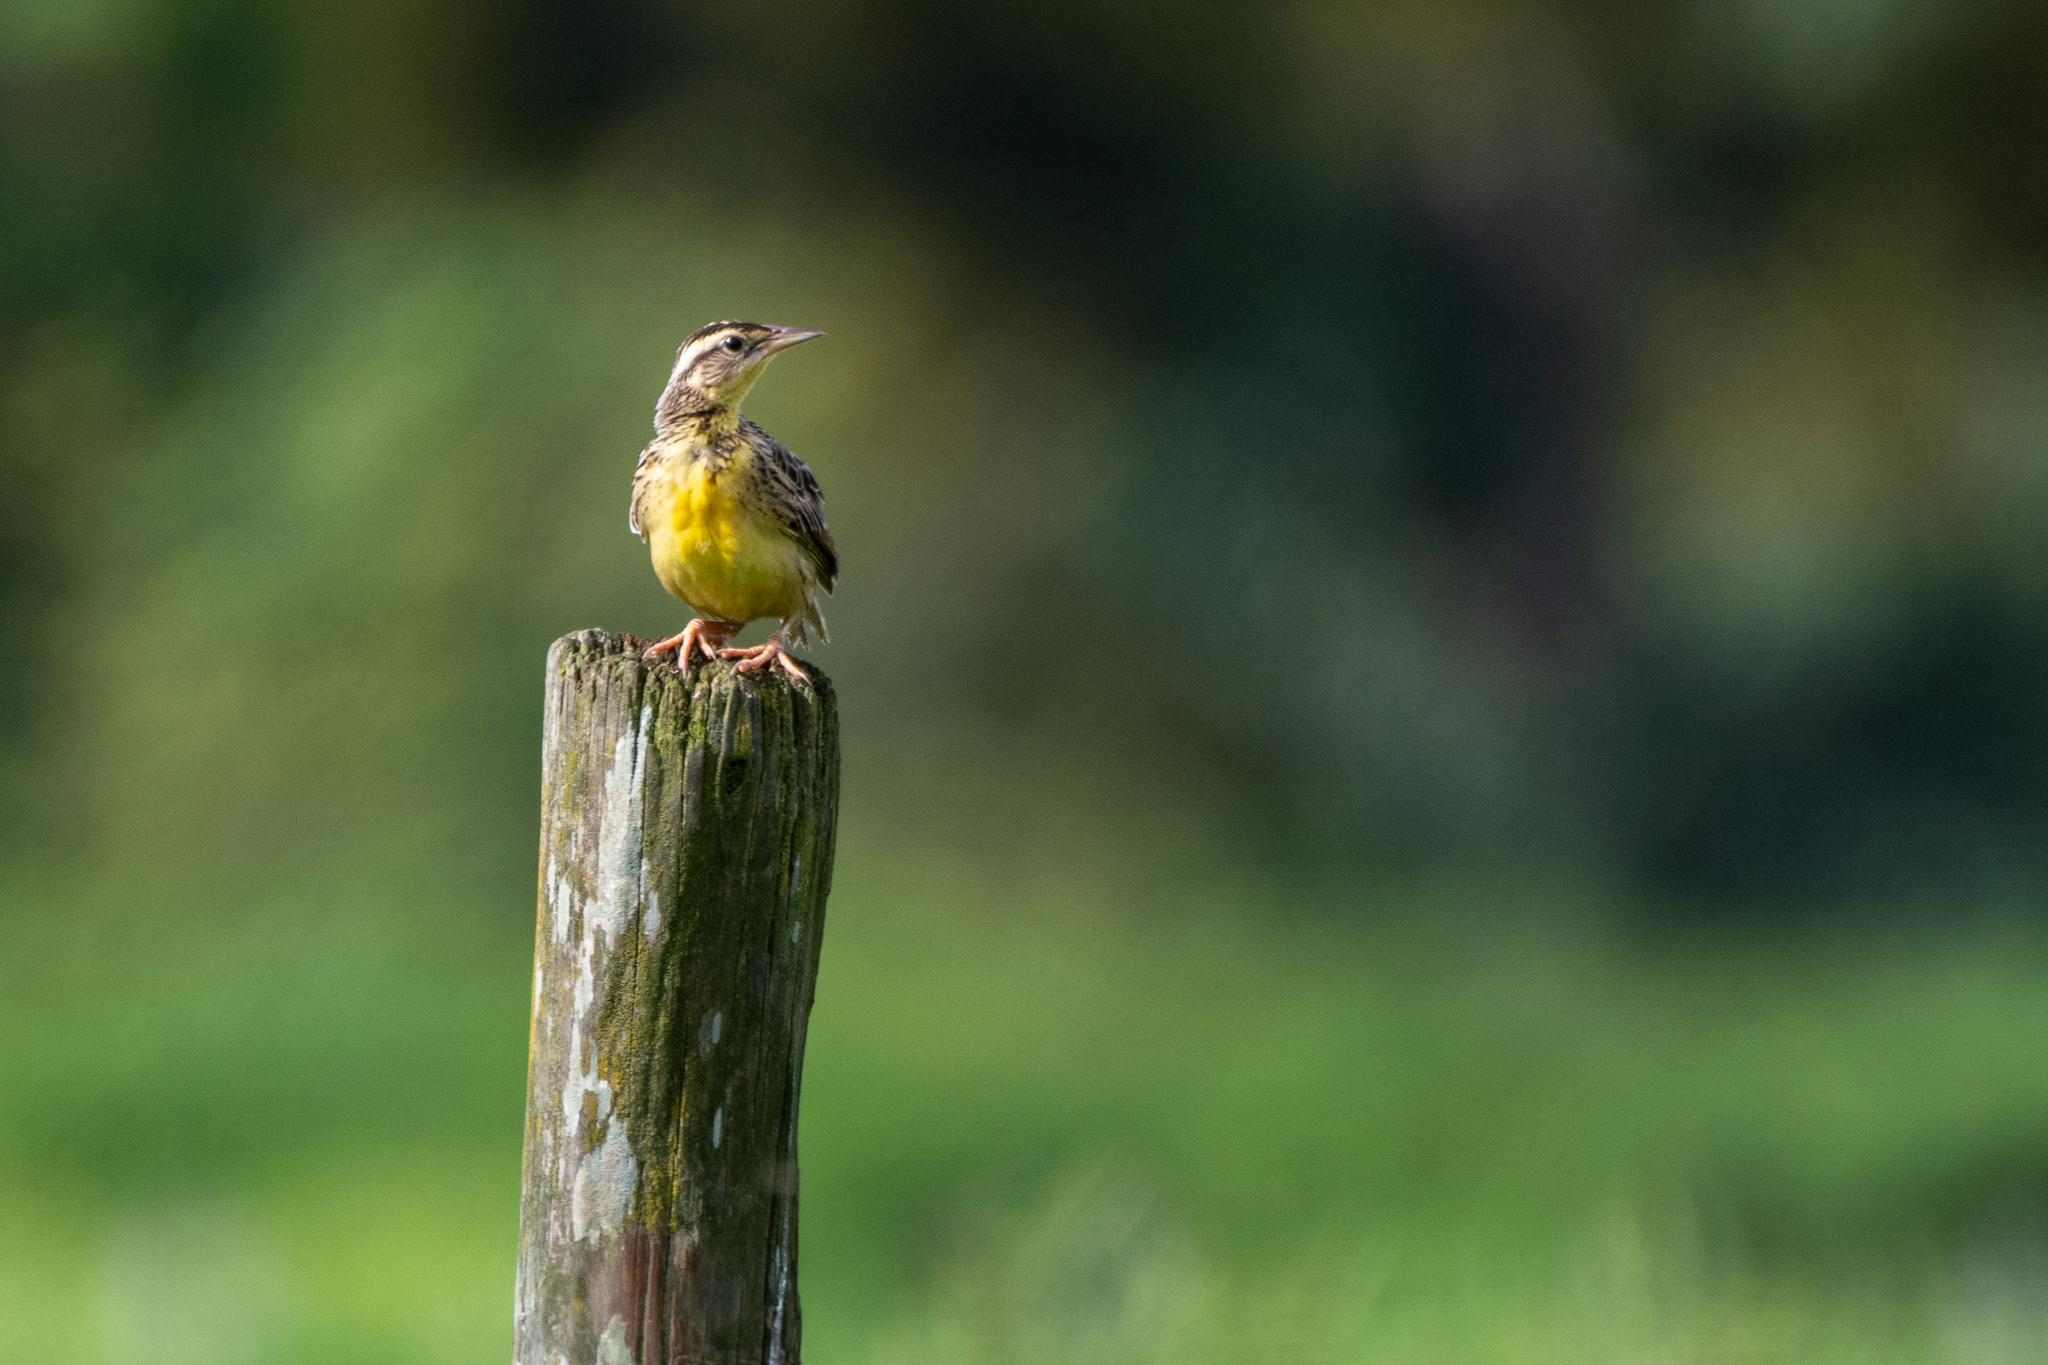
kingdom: Animalia
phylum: Chordata
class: Aves
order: Passeriformes
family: Icteridae
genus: Sturnella
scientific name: Sturnella magna
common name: Eastern meadowlark
